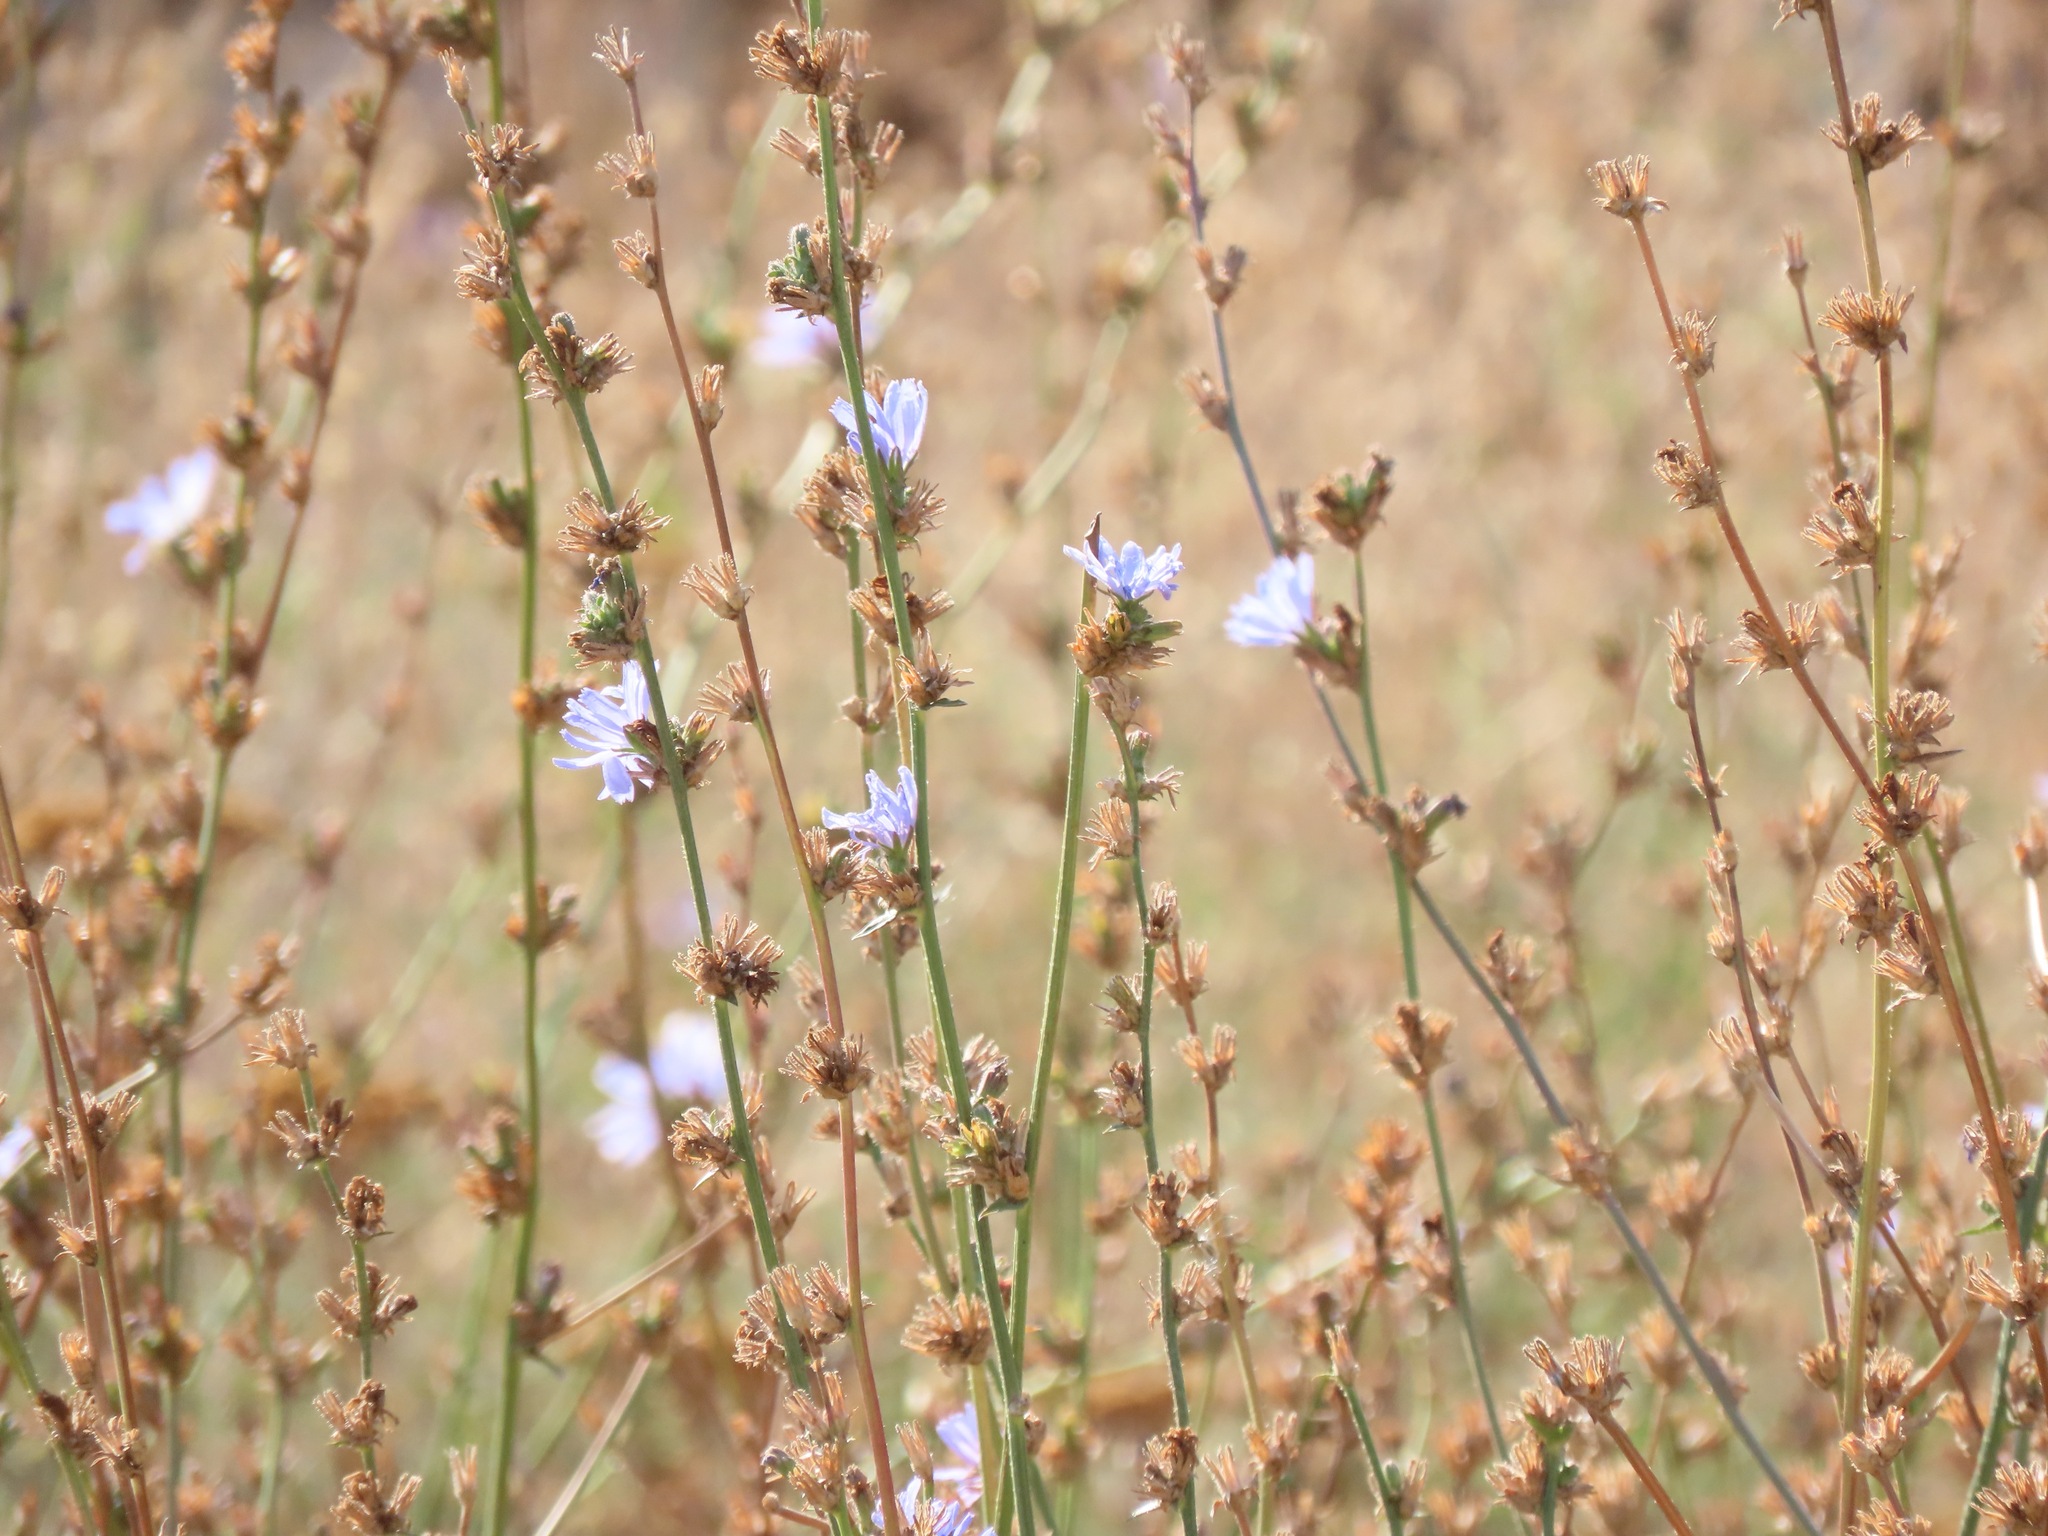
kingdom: Plantae
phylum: Tracheophyta
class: Magnoliopsida
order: Asterales
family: Asteraceae
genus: Cichorium
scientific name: Cichorium intybus
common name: Chicory
